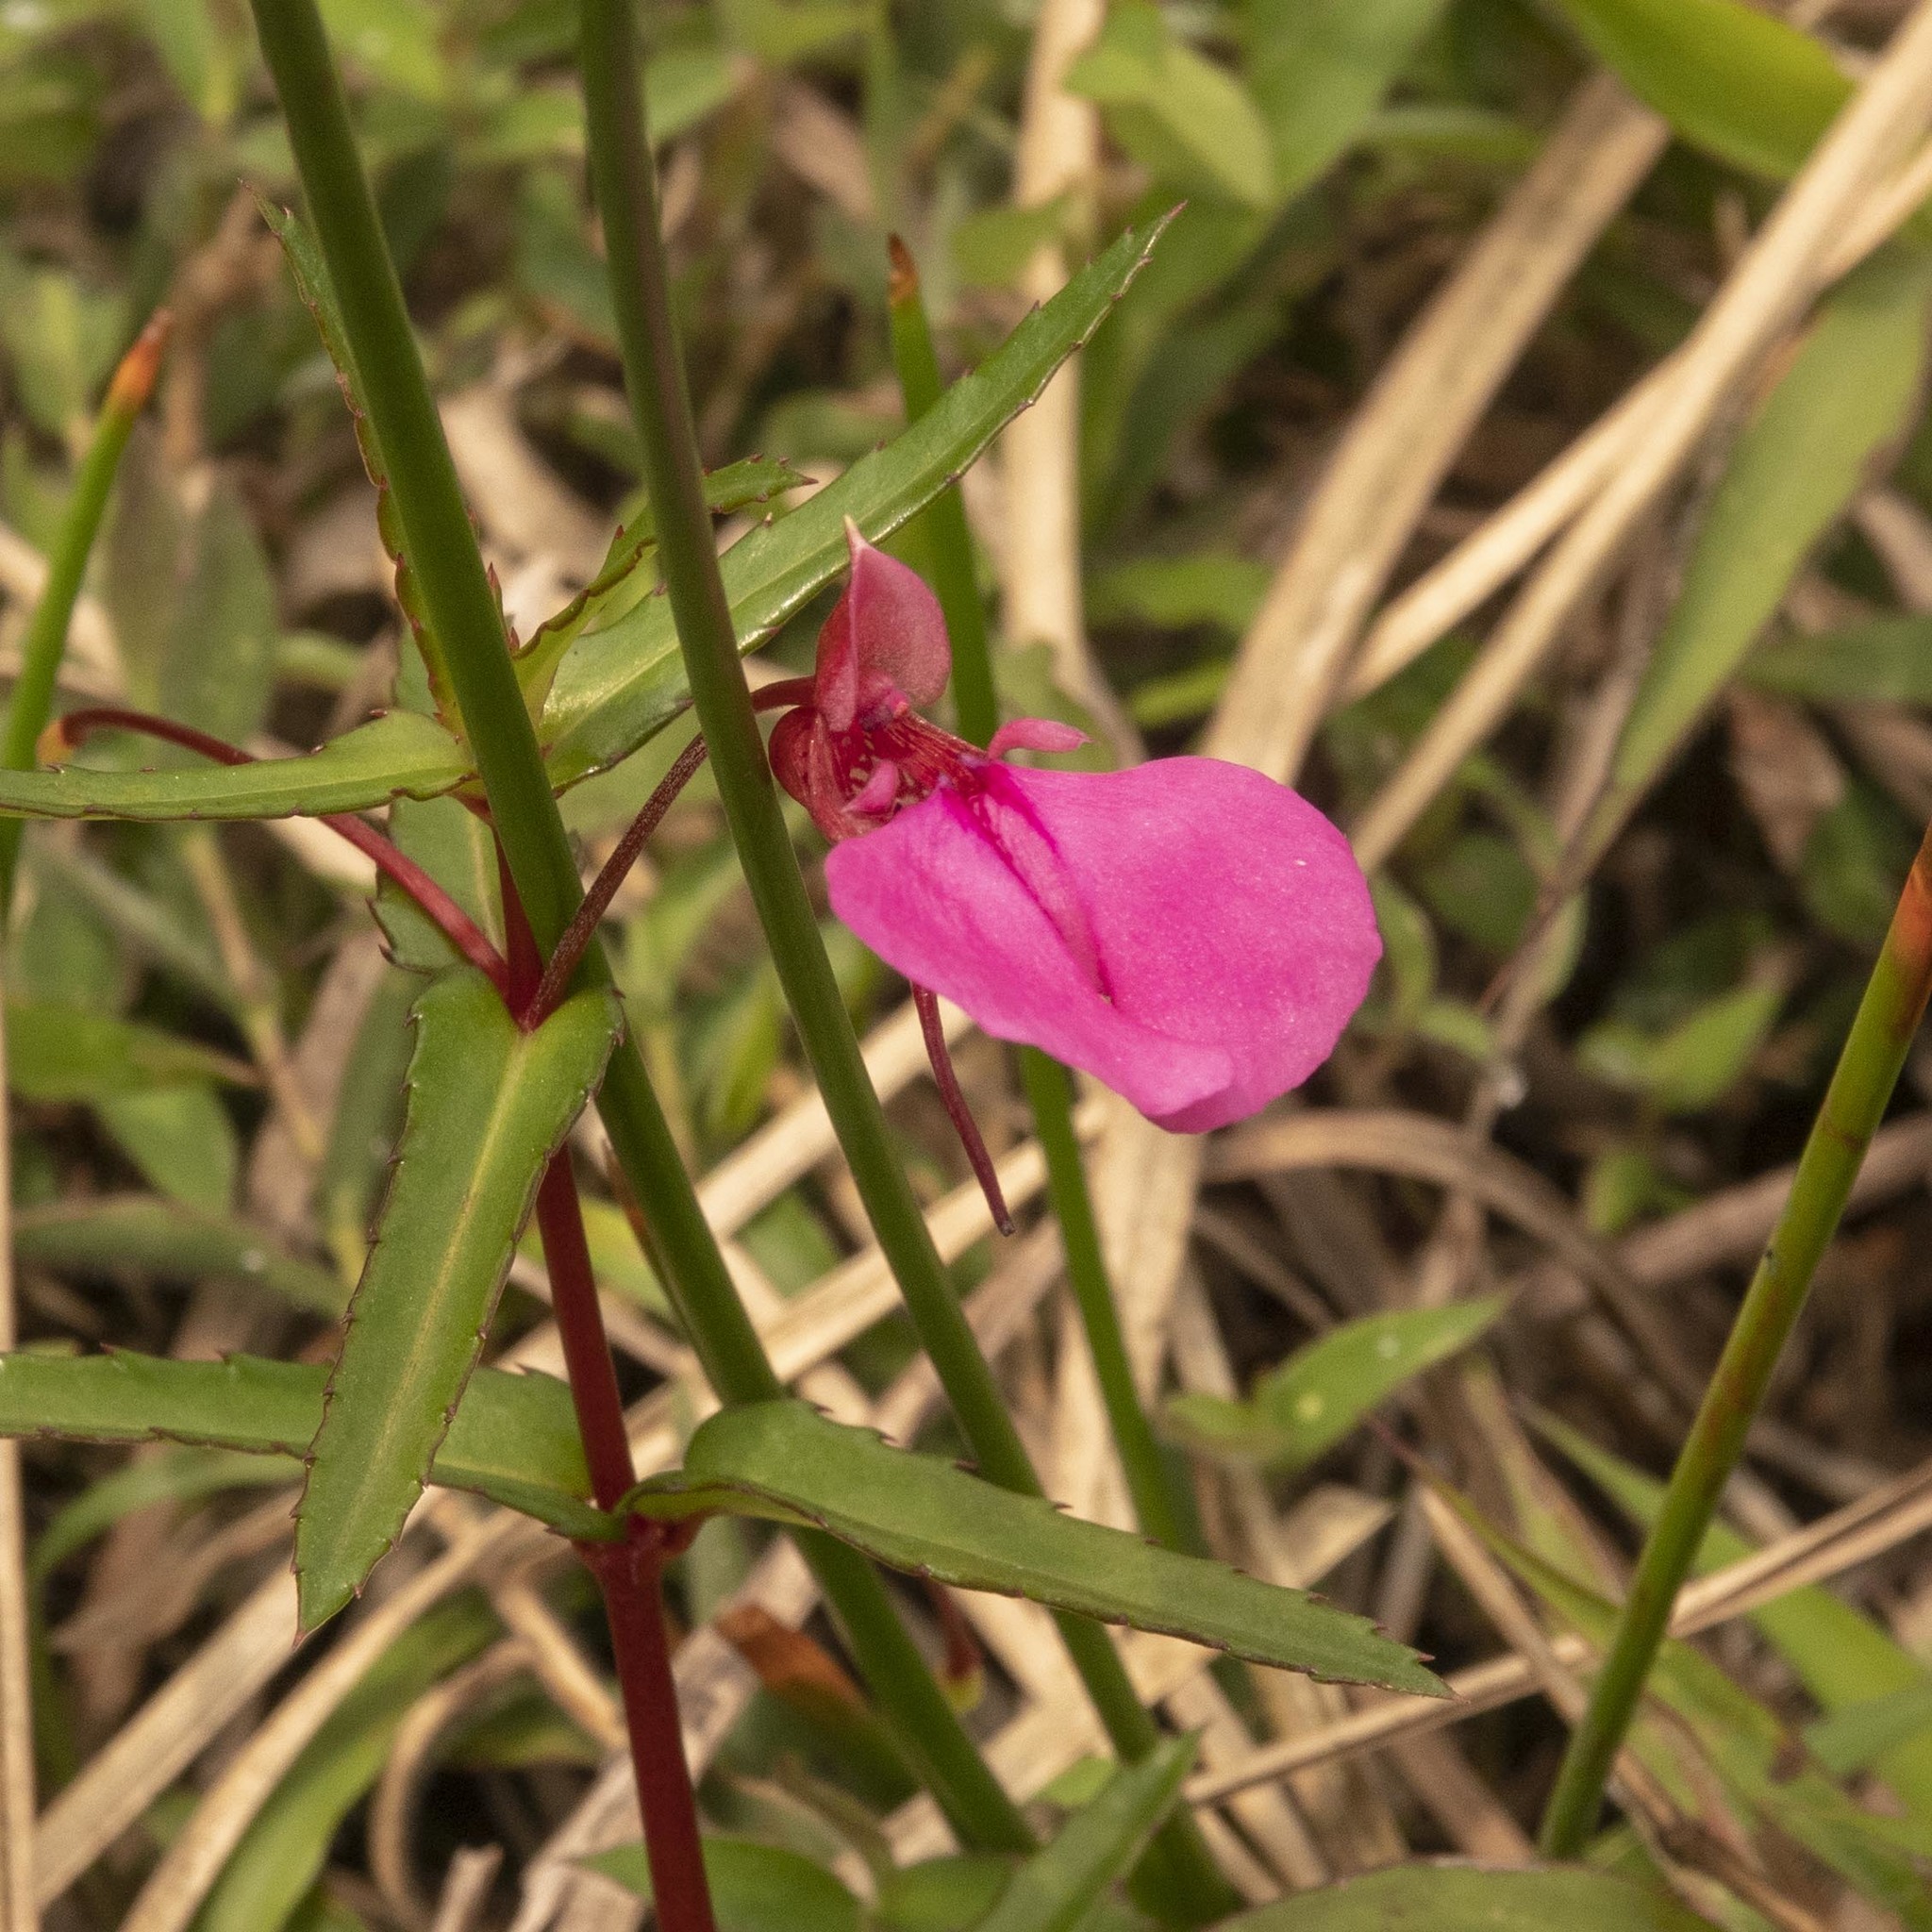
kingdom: Plantae
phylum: Tracheophyta
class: Magnoliopsida
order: Ericales
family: Balsaminaceae
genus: Impatiens
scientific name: Impatiens diversifolia
